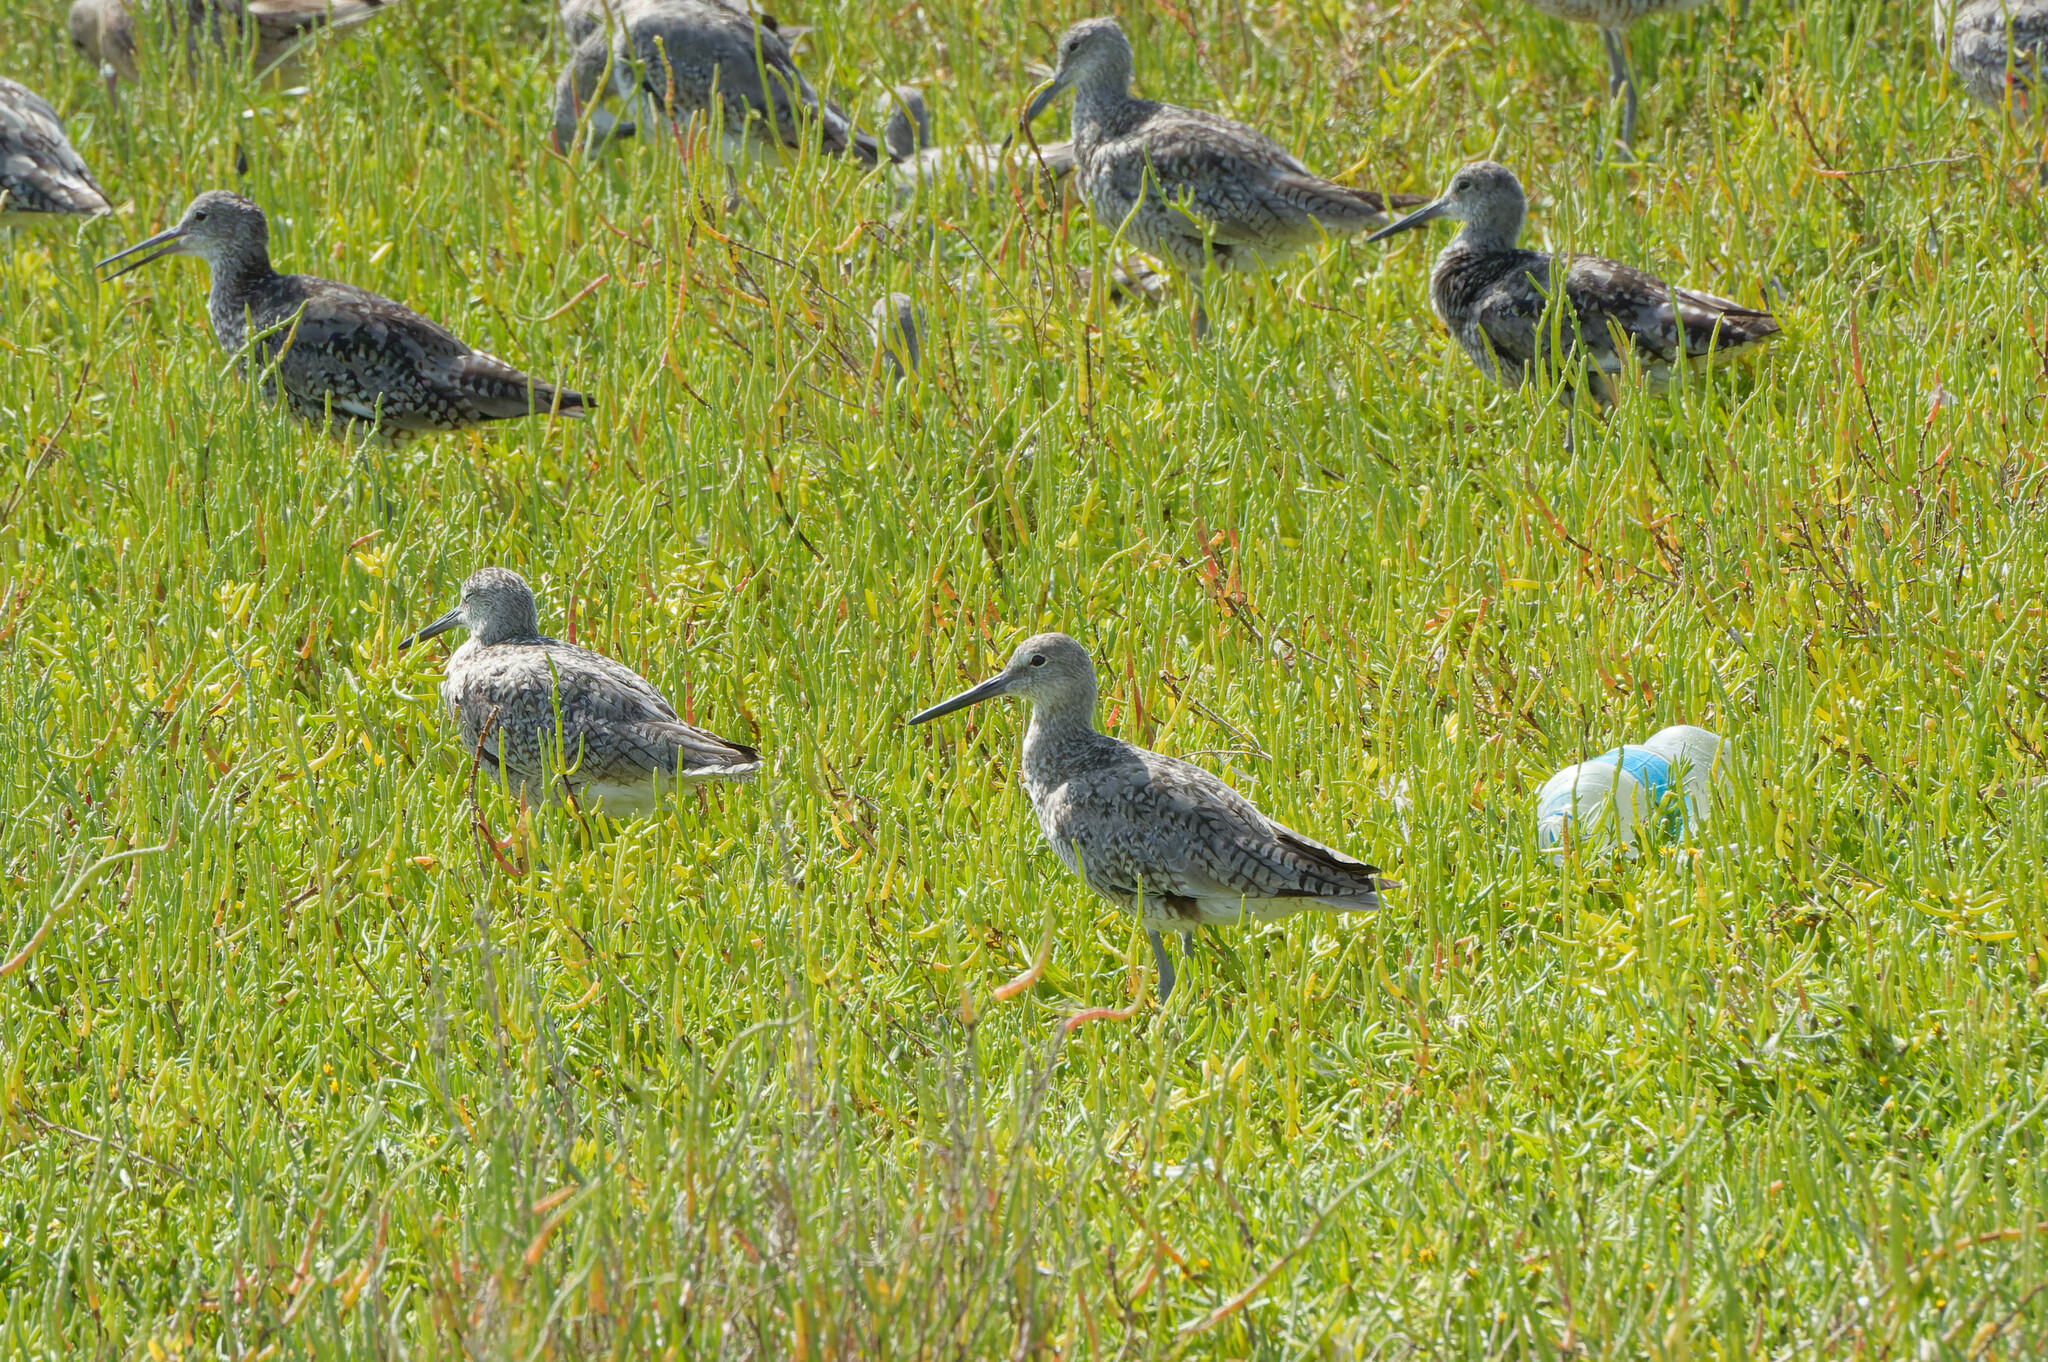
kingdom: Animalia
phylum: Chordata
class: Aves
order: Charadriiformes
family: Scolopacidae
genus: Tringa
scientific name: Tringa semipalmata
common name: Willet
